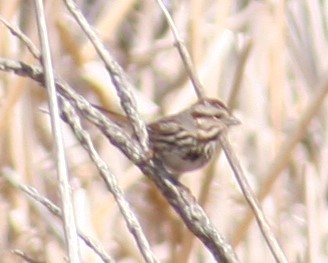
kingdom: Animalia
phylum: Chordata
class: Aves
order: Passeriformes
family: Passerellidae
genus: Melospiza
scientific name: Melospiza melodia
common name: Song sparrow
